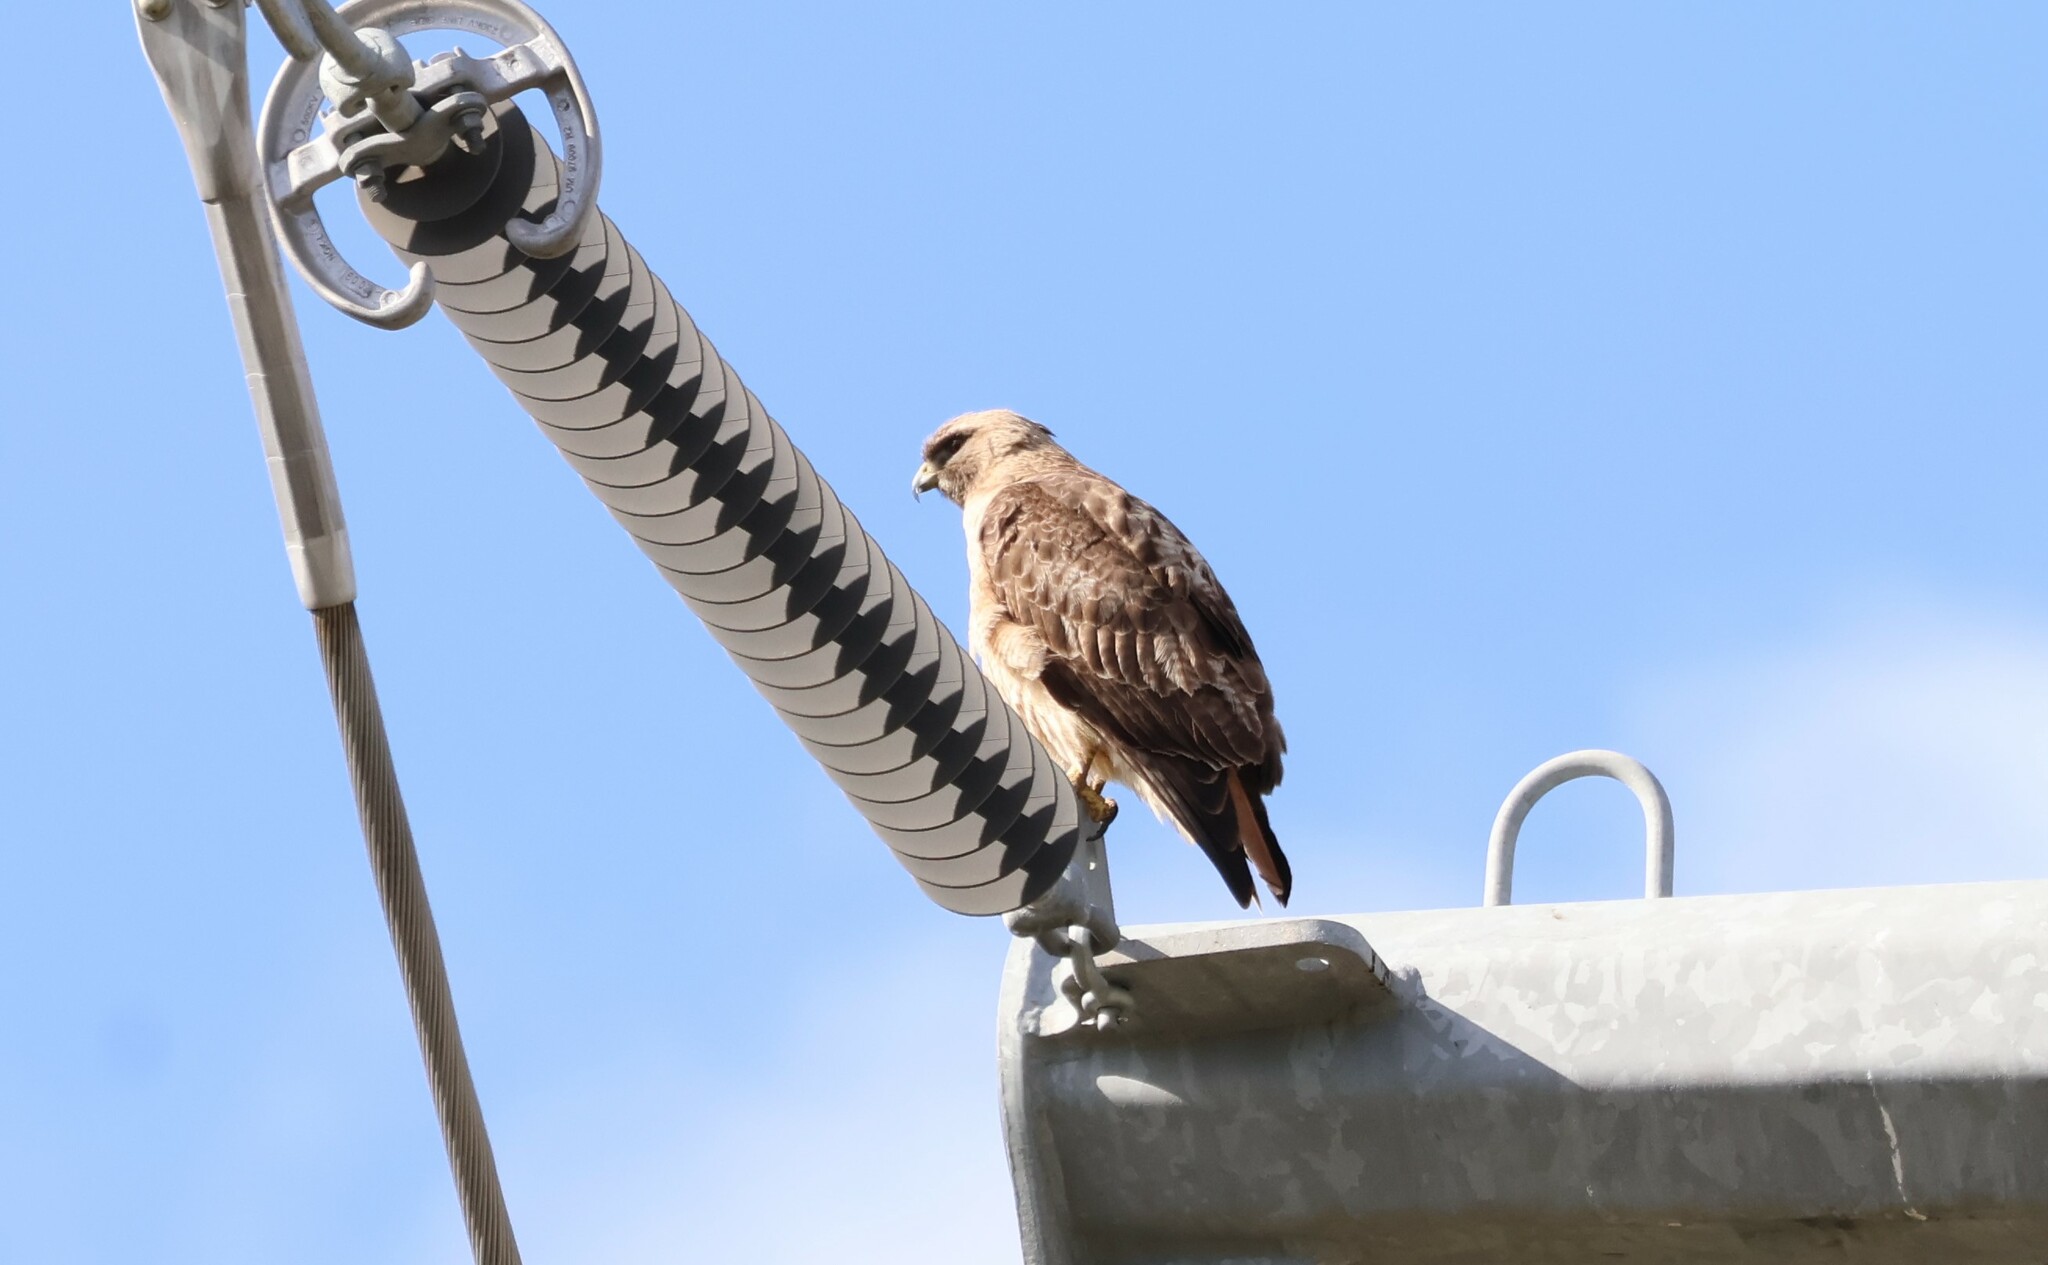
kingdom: Animalia
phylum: Chordata
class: Aves
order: Accipitriformes
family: Accipitridae
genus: Buteo
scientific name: Buteo jamaicensis
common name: Red-tailed hawk
